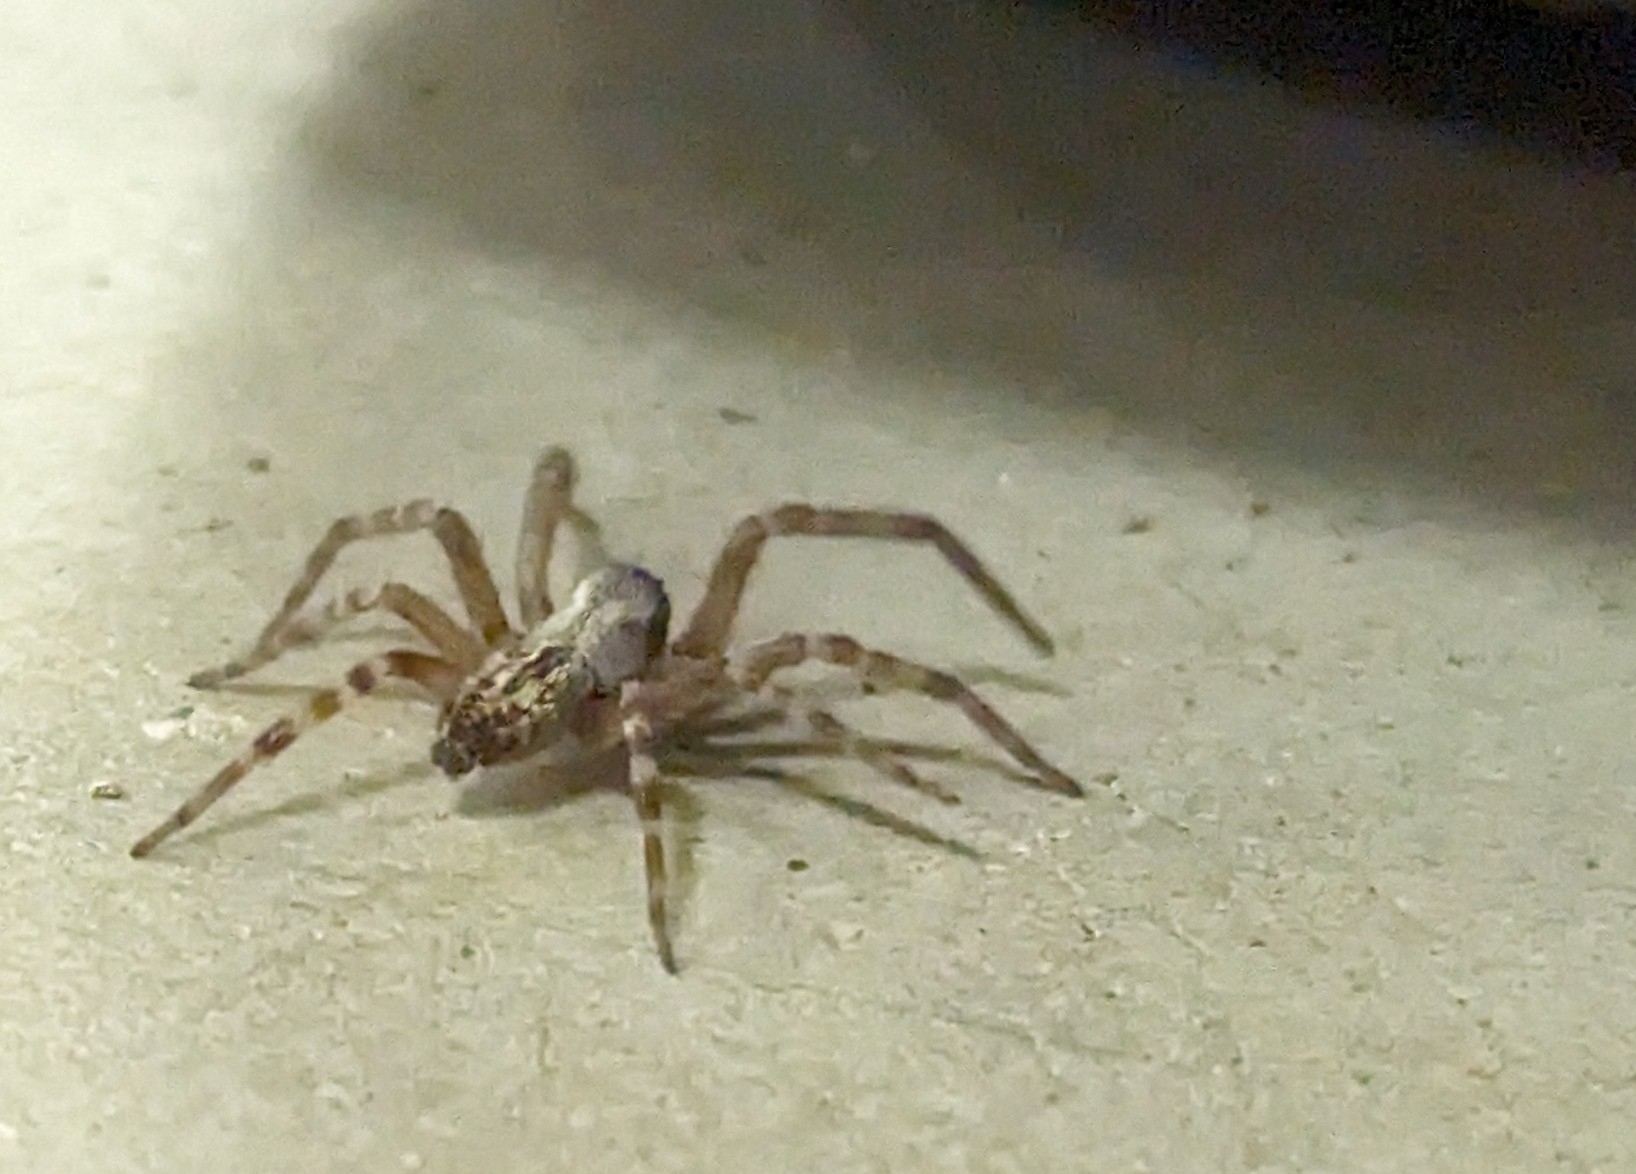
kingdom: Animalia
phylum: Arthropoda
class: Arachnida
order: Araneae
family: Desidae
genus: Badumna
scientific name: Badumna longinqua
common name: Gray house spider
